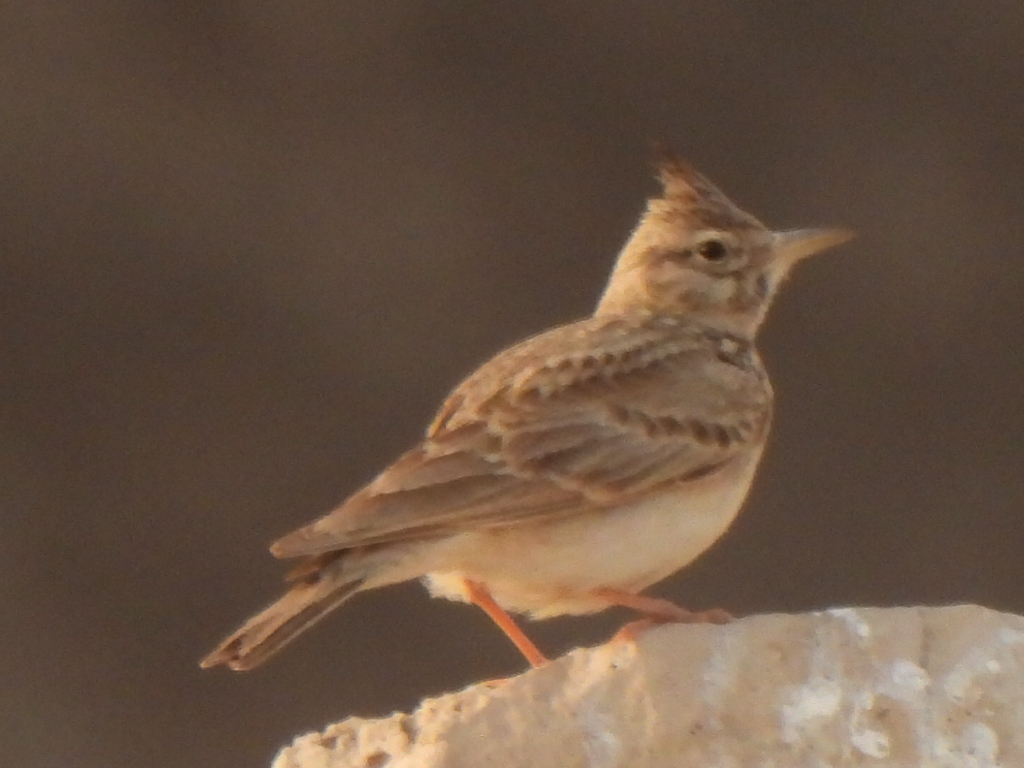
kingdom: Animalia
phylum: Chordata
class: Aves
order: Passeriformes
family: Alaudidae
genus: Galerida
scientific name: Galerida cristata
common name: Crested lark
